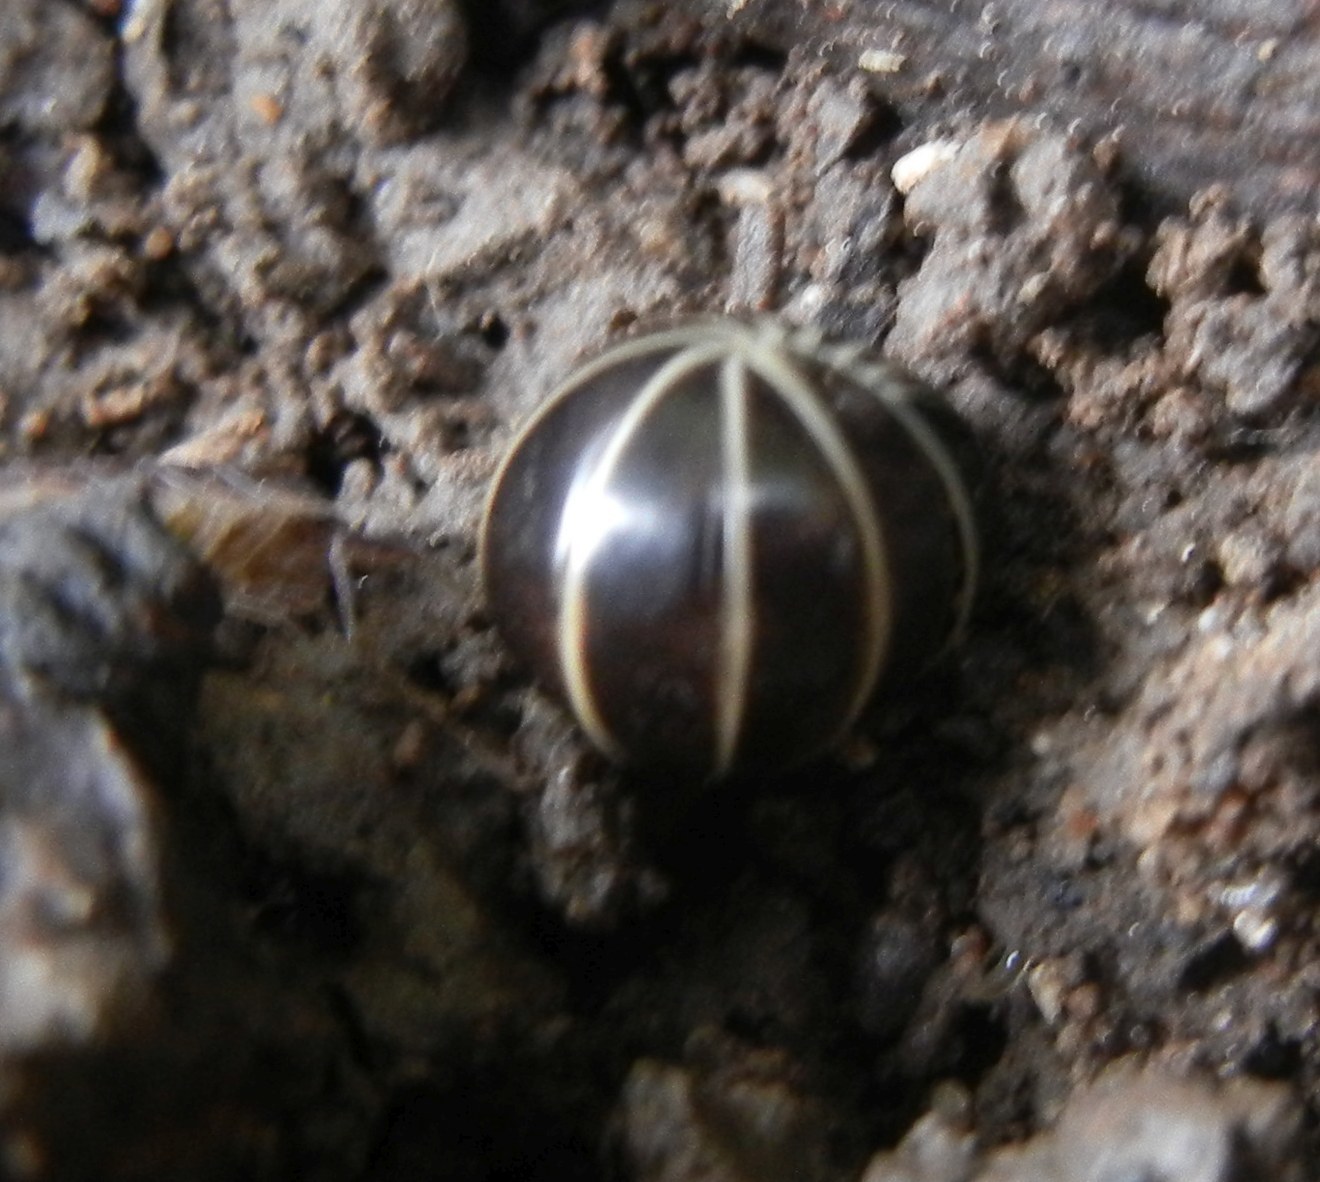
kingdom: Animalia
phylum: Arthropoda
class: Diplopoda
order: Glomerida
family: Glomeridae
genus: Glomeris
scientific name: Glomeris marginata
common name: Bordered pill millipede
